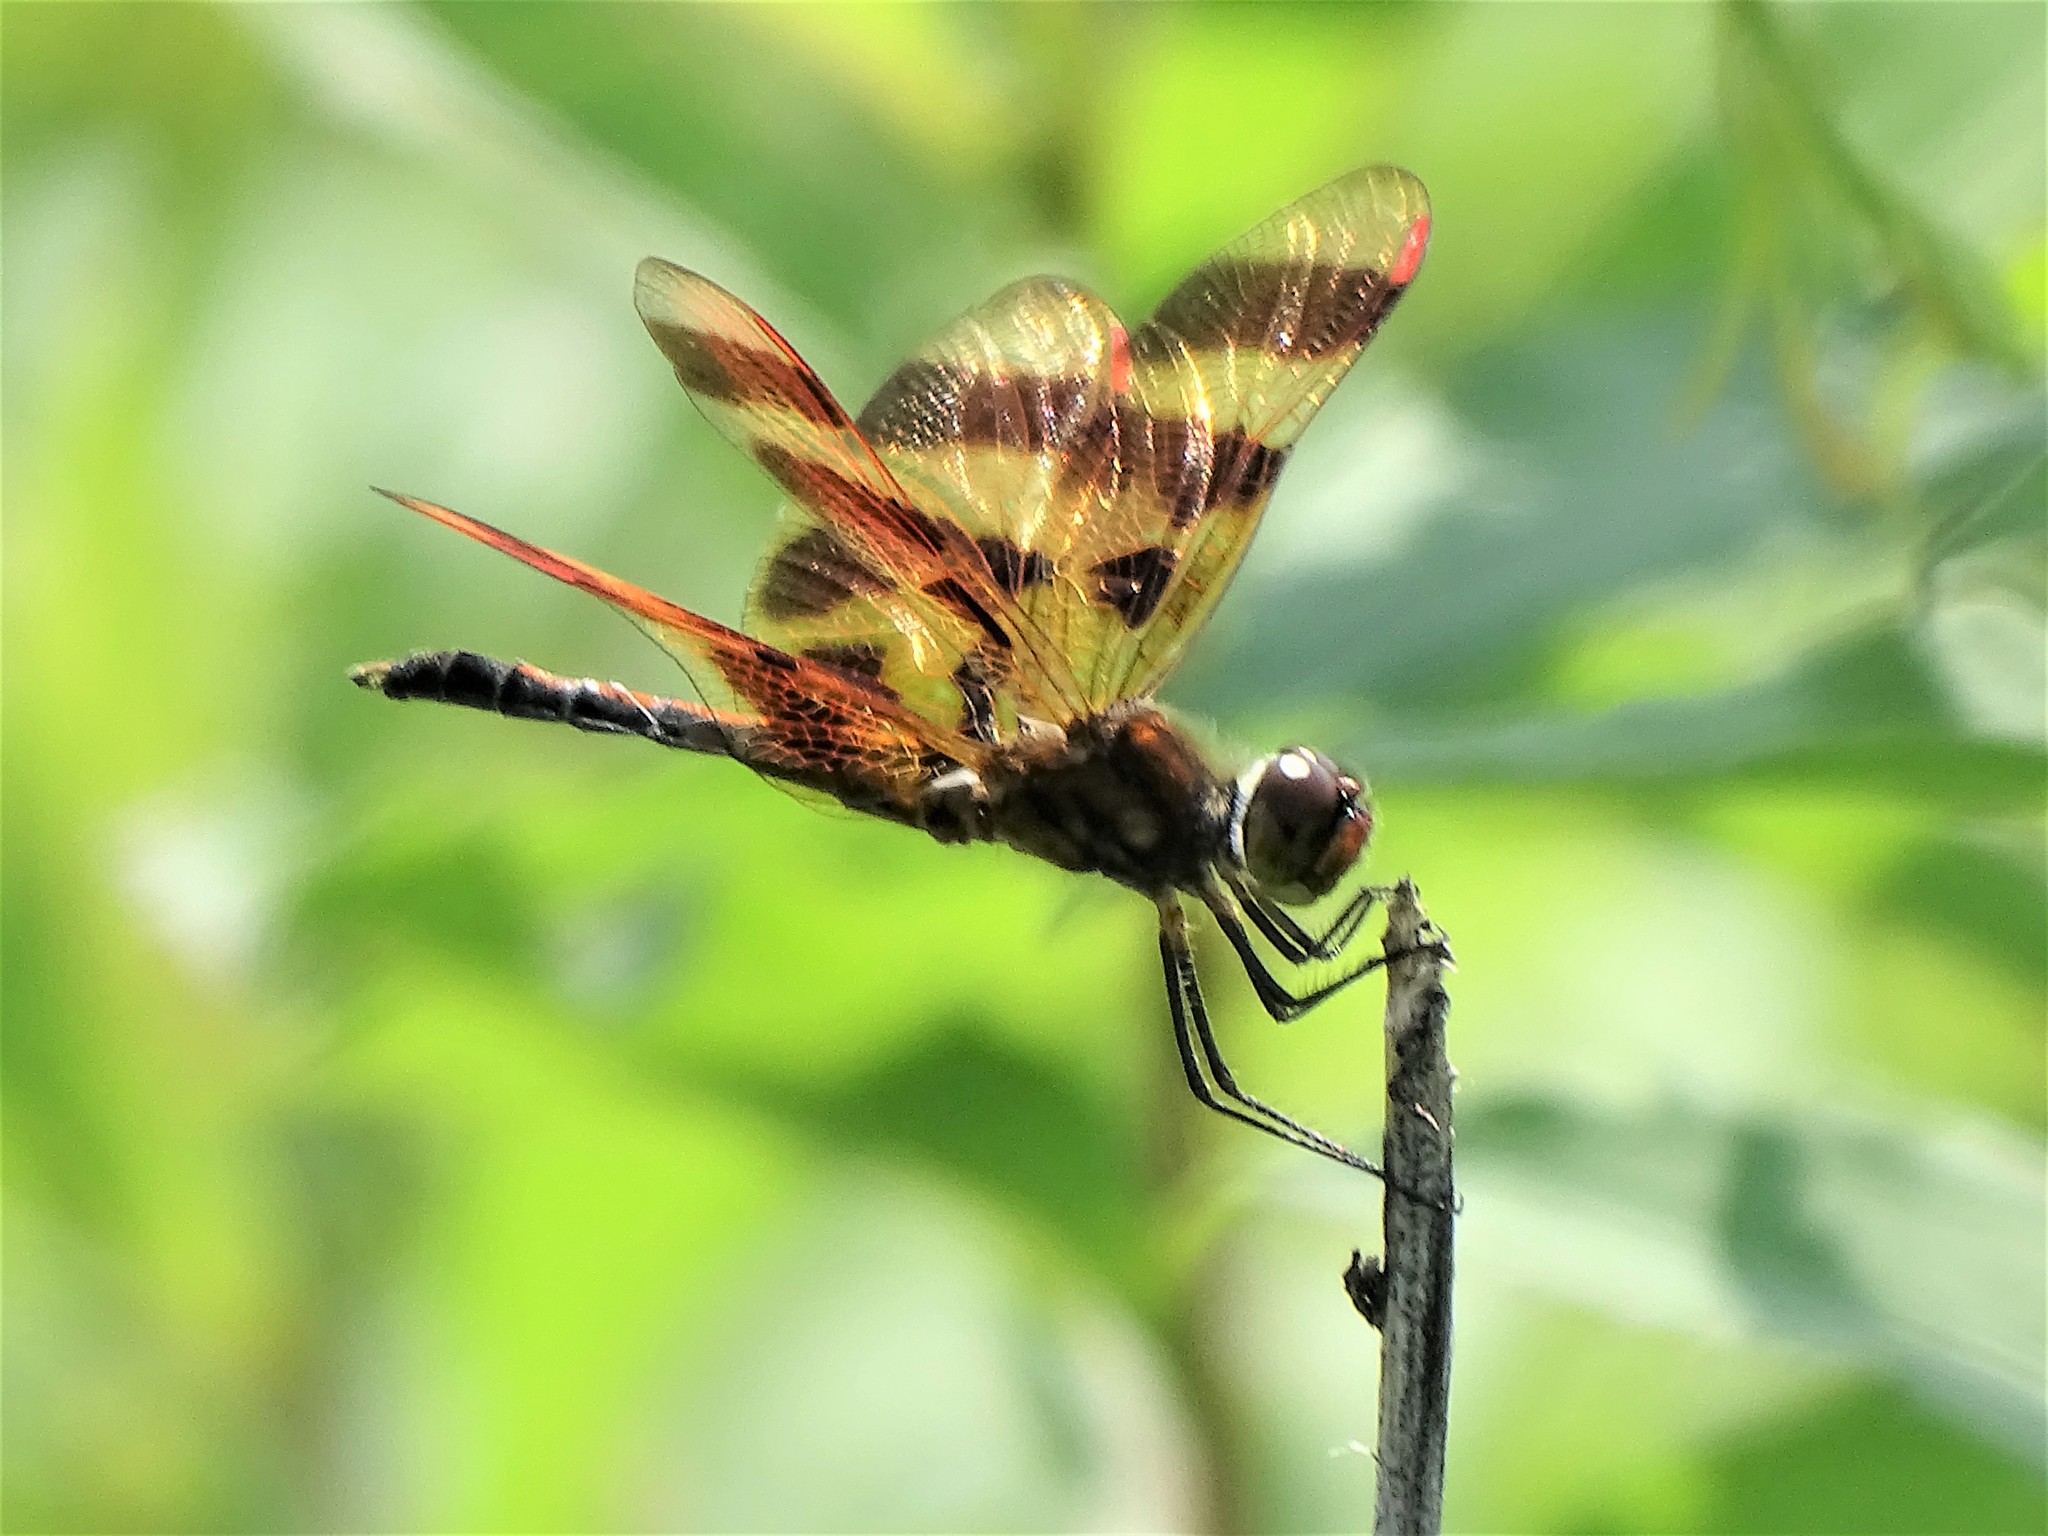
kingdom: Animalia
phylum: Arthropoda
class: Insecta
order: Odonata
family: Libellulidae
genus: Celithemis
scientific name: Celithemis eponina
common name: Halloween pennant
